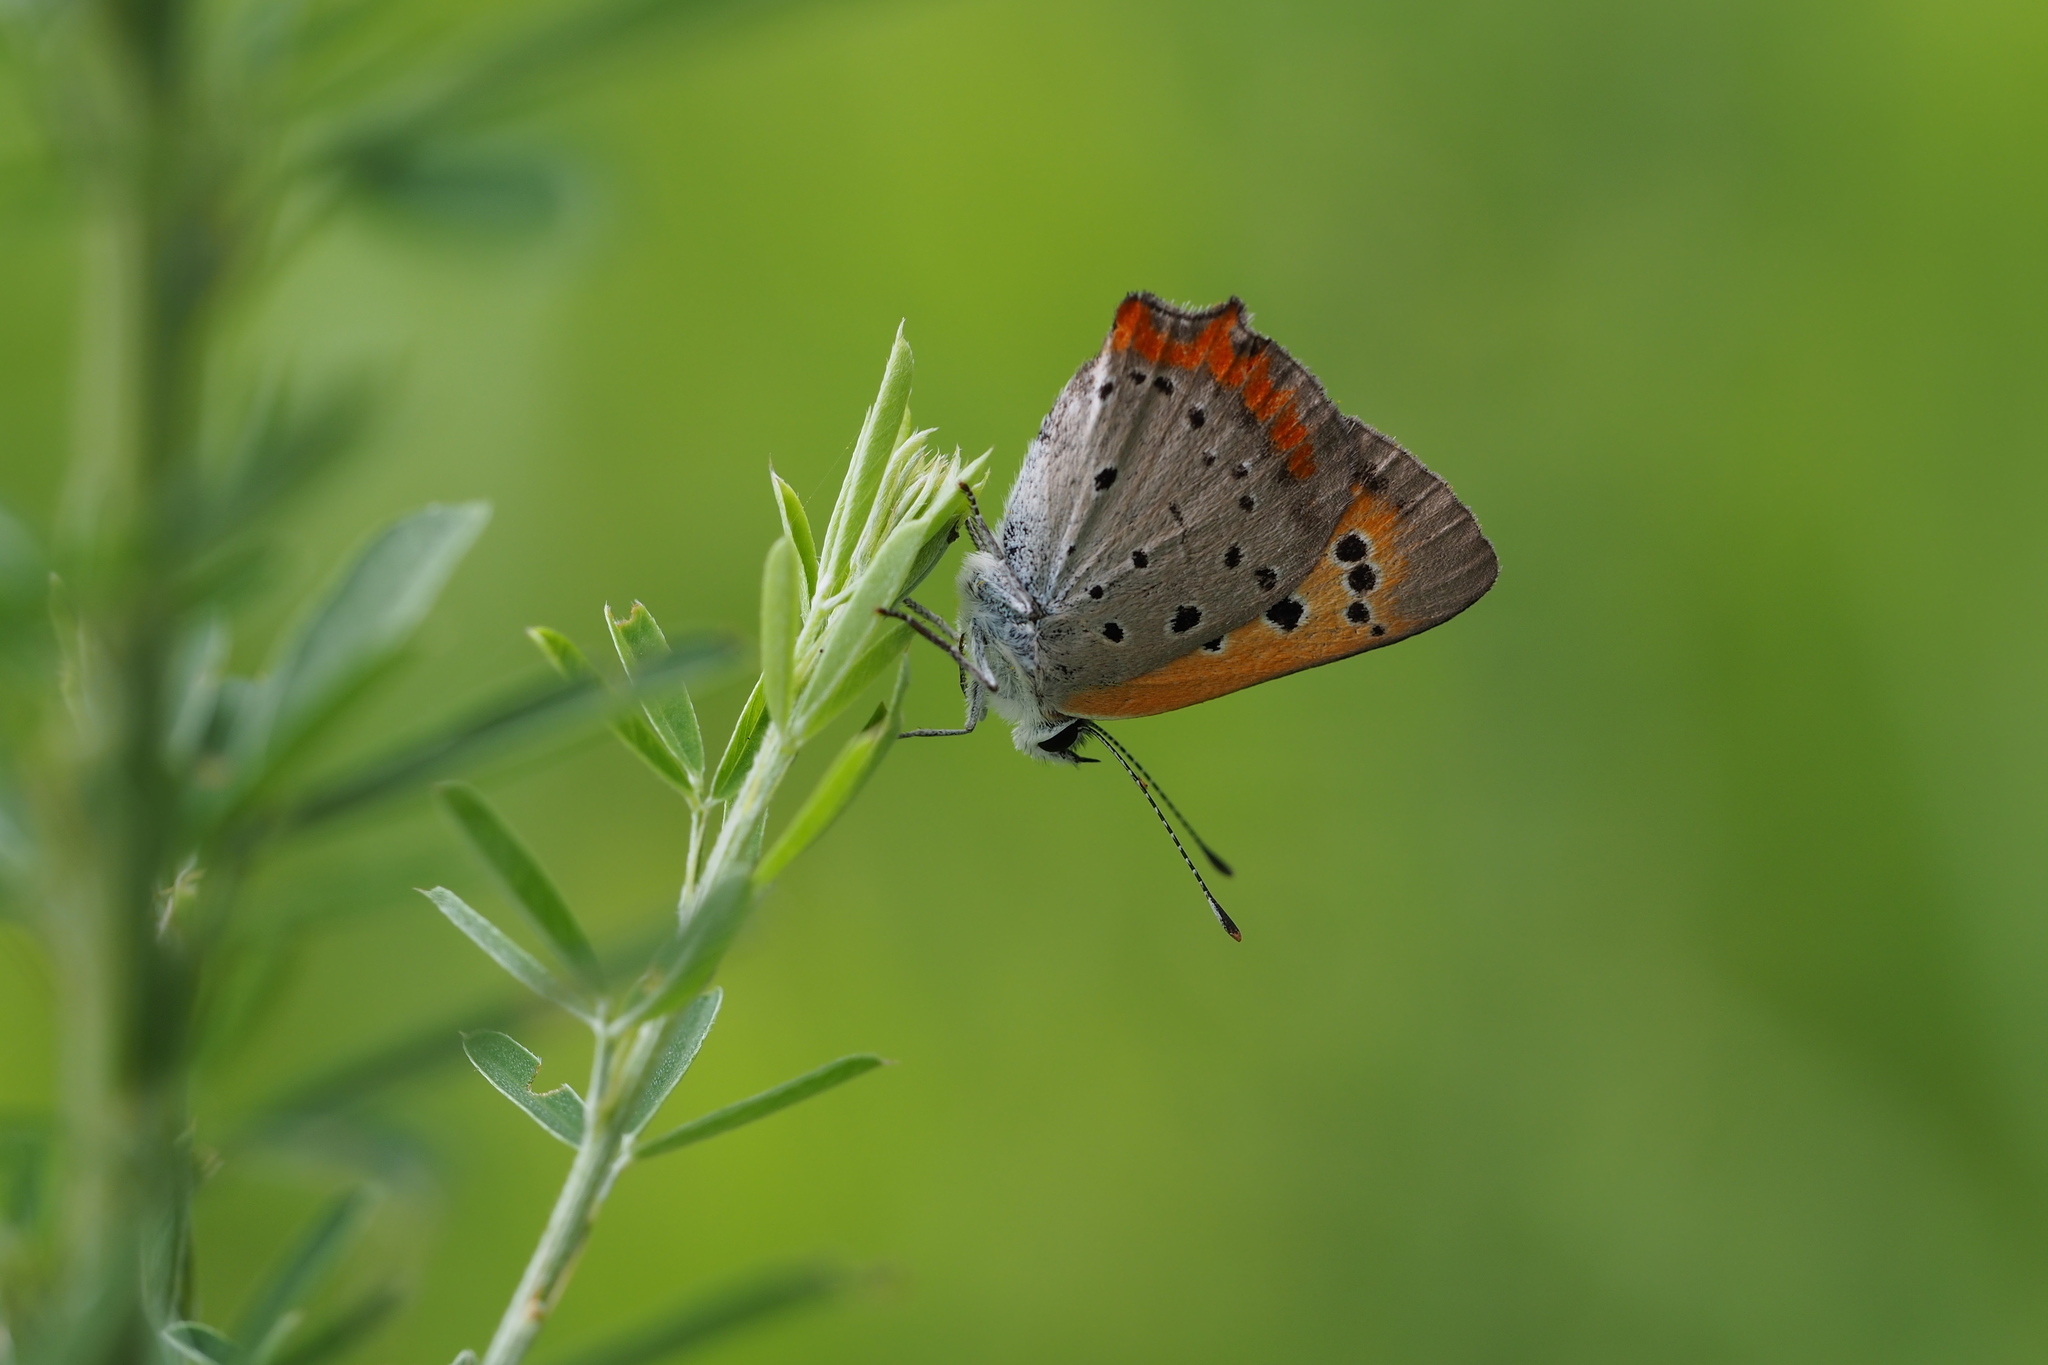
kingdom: Animalia
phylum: Arthropoda
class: Insecta
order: Lepidoptera
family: Lycaenidae
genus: Lycaena
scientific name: Lycaena phlaeas
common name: Small copper
